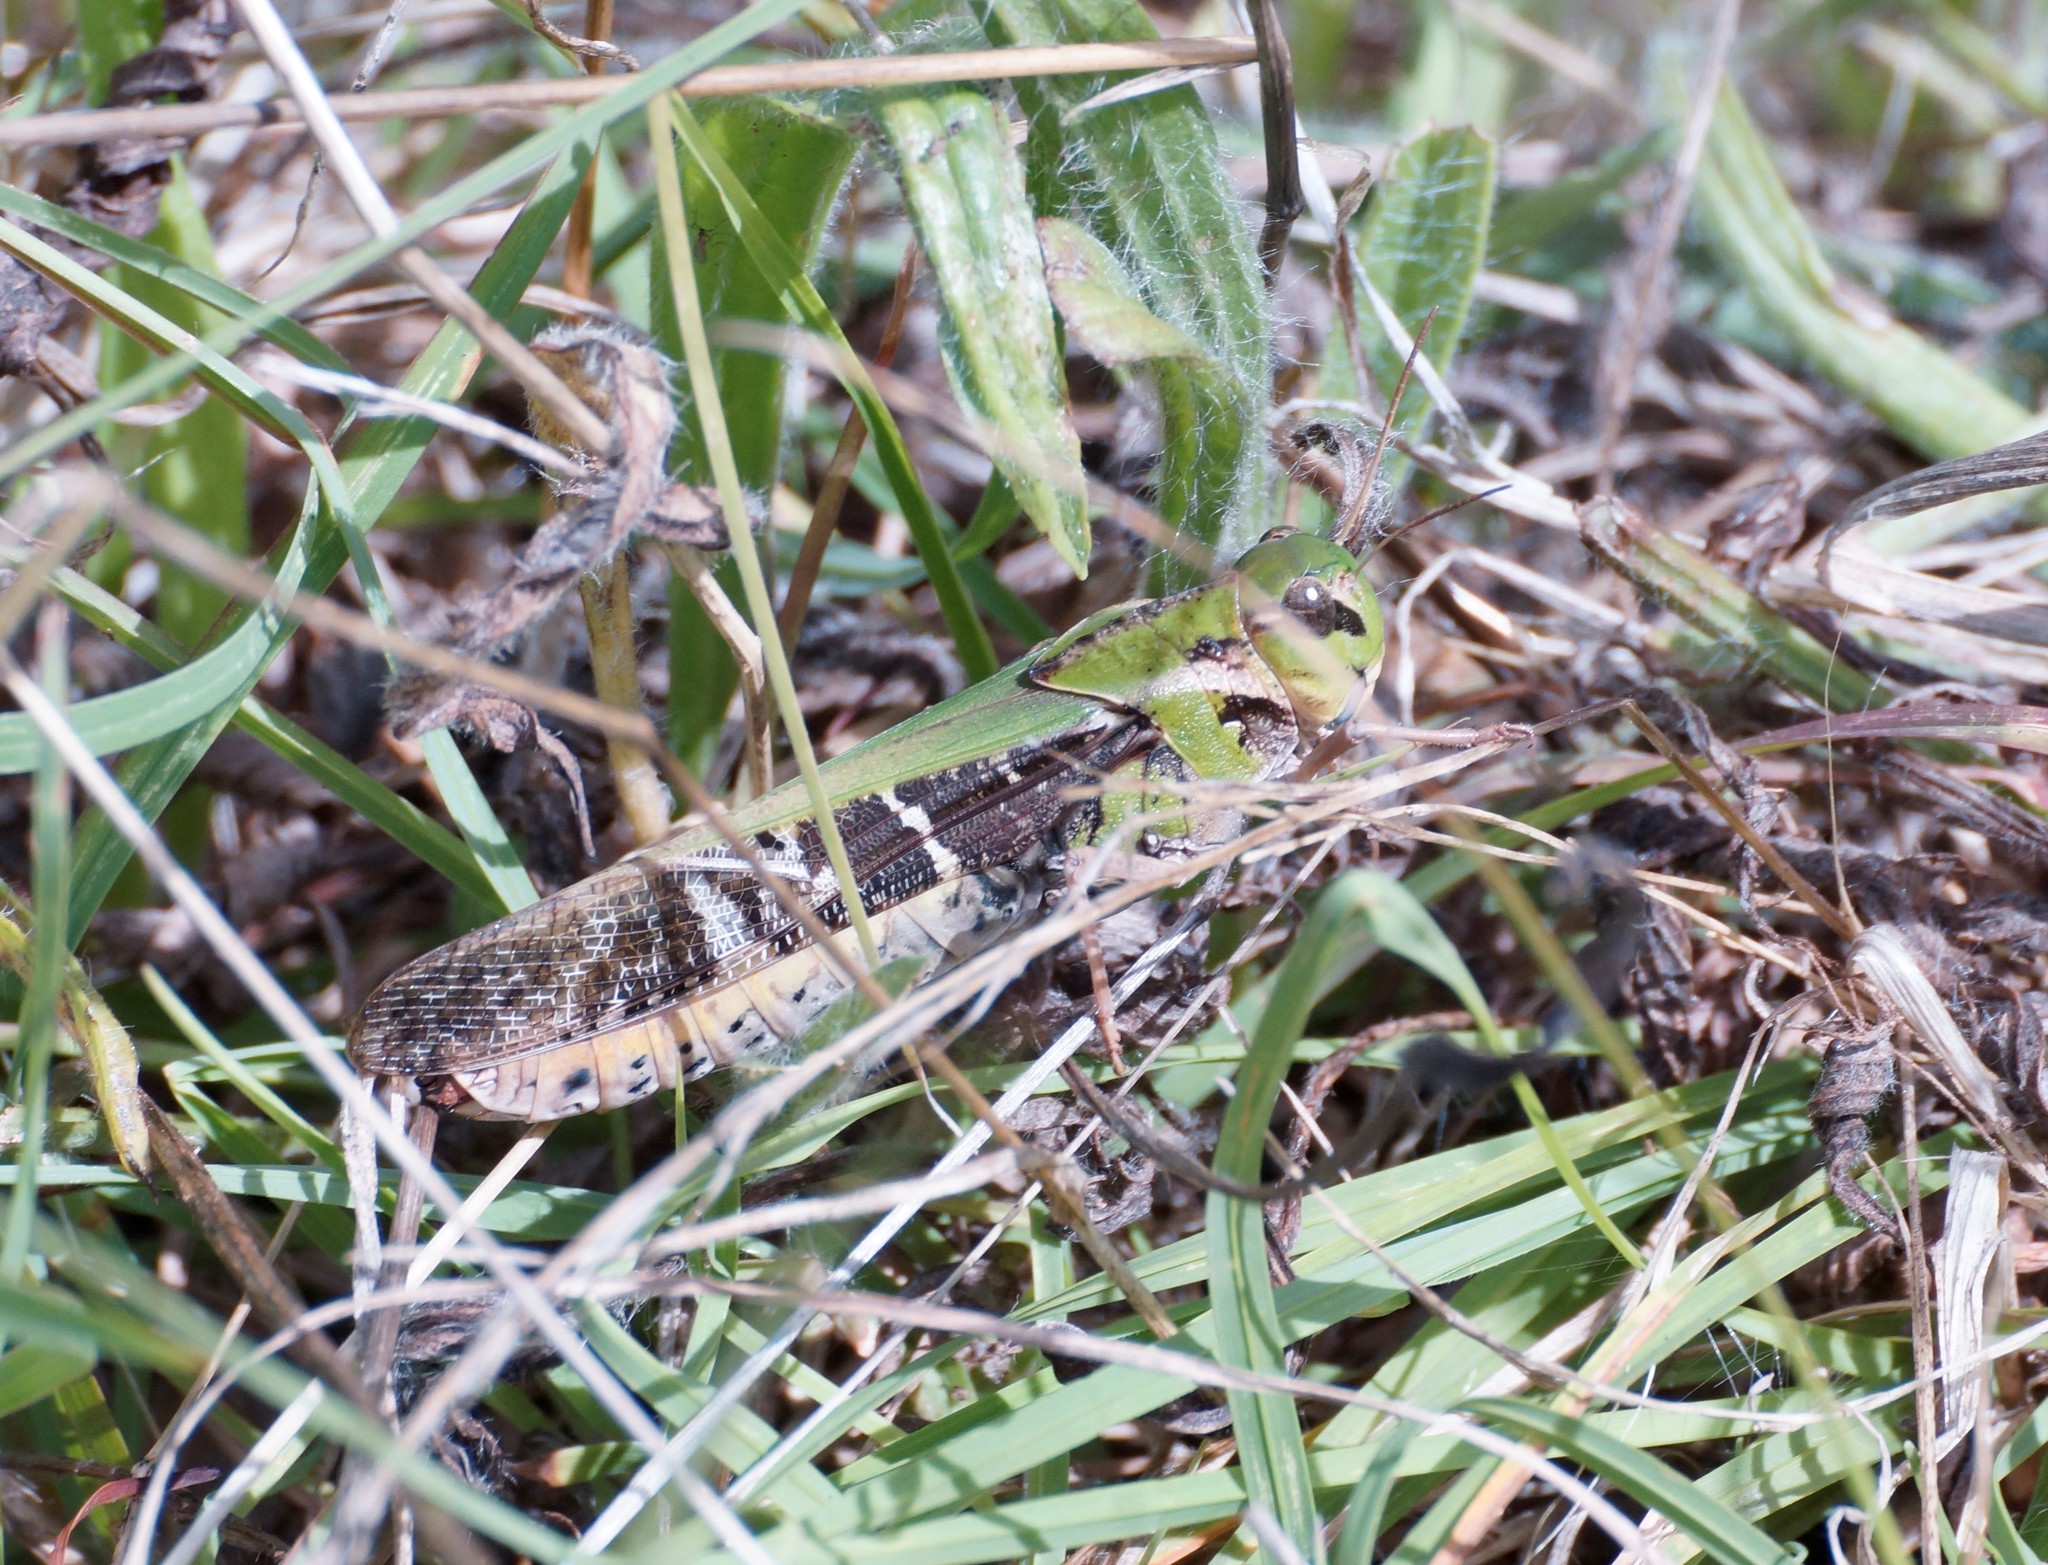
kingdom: Animalia
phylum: Arthropoda
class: Insecta
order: Orthoptera
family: Acrididae
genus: Gastrimargus
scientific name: Gastrimargus musicus
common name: Yellow-winged locust
